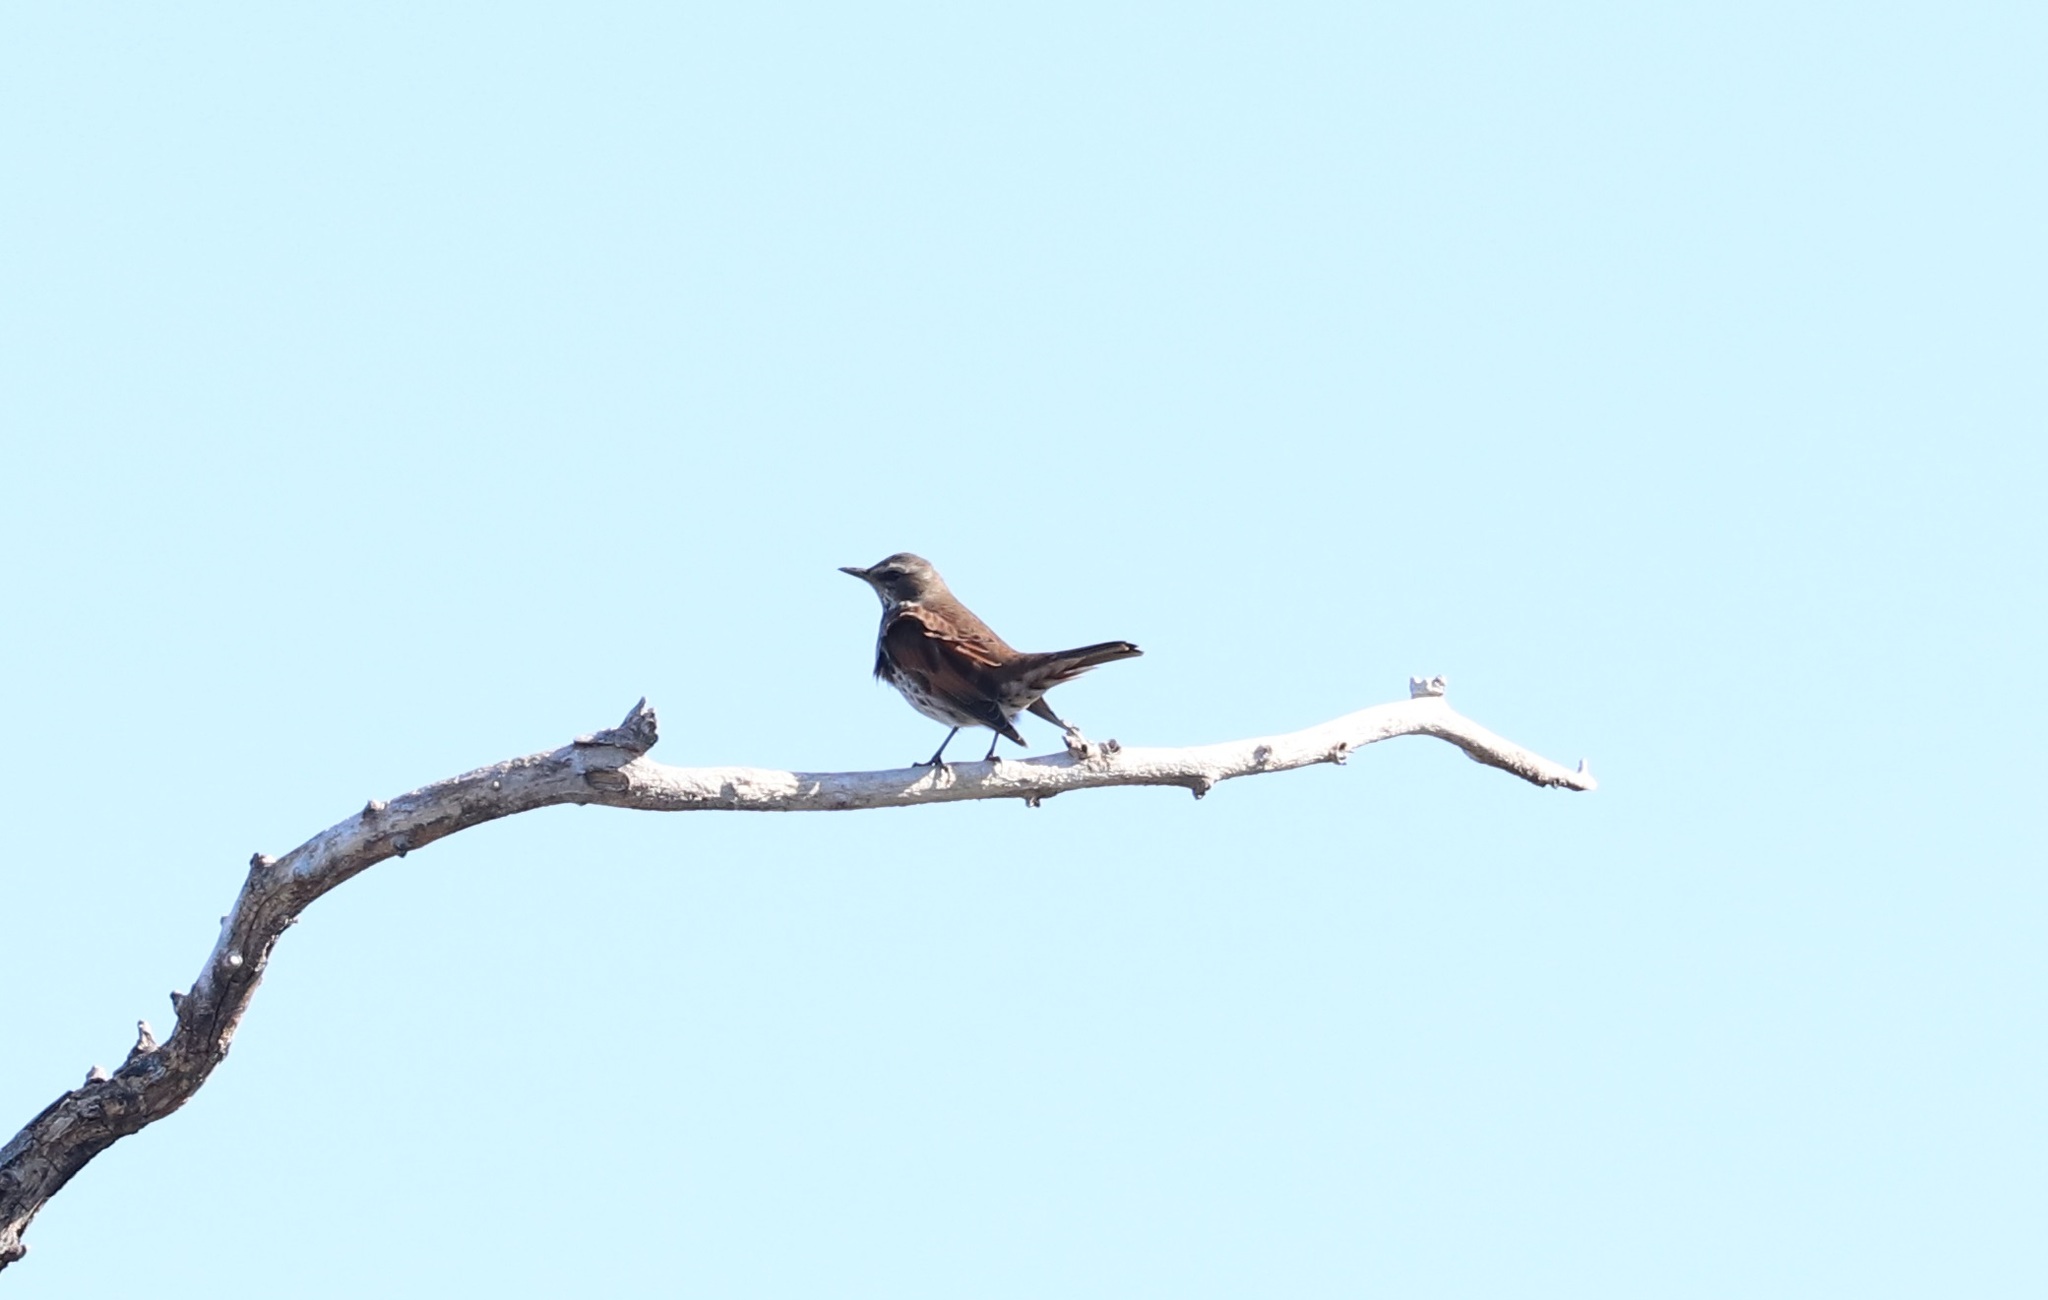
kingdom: Animalia
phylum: Chordata
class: Aves
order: Passeriformes
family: Turdidae
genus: Turdus
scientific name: Turdus eunomus
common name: Dusky thrush
